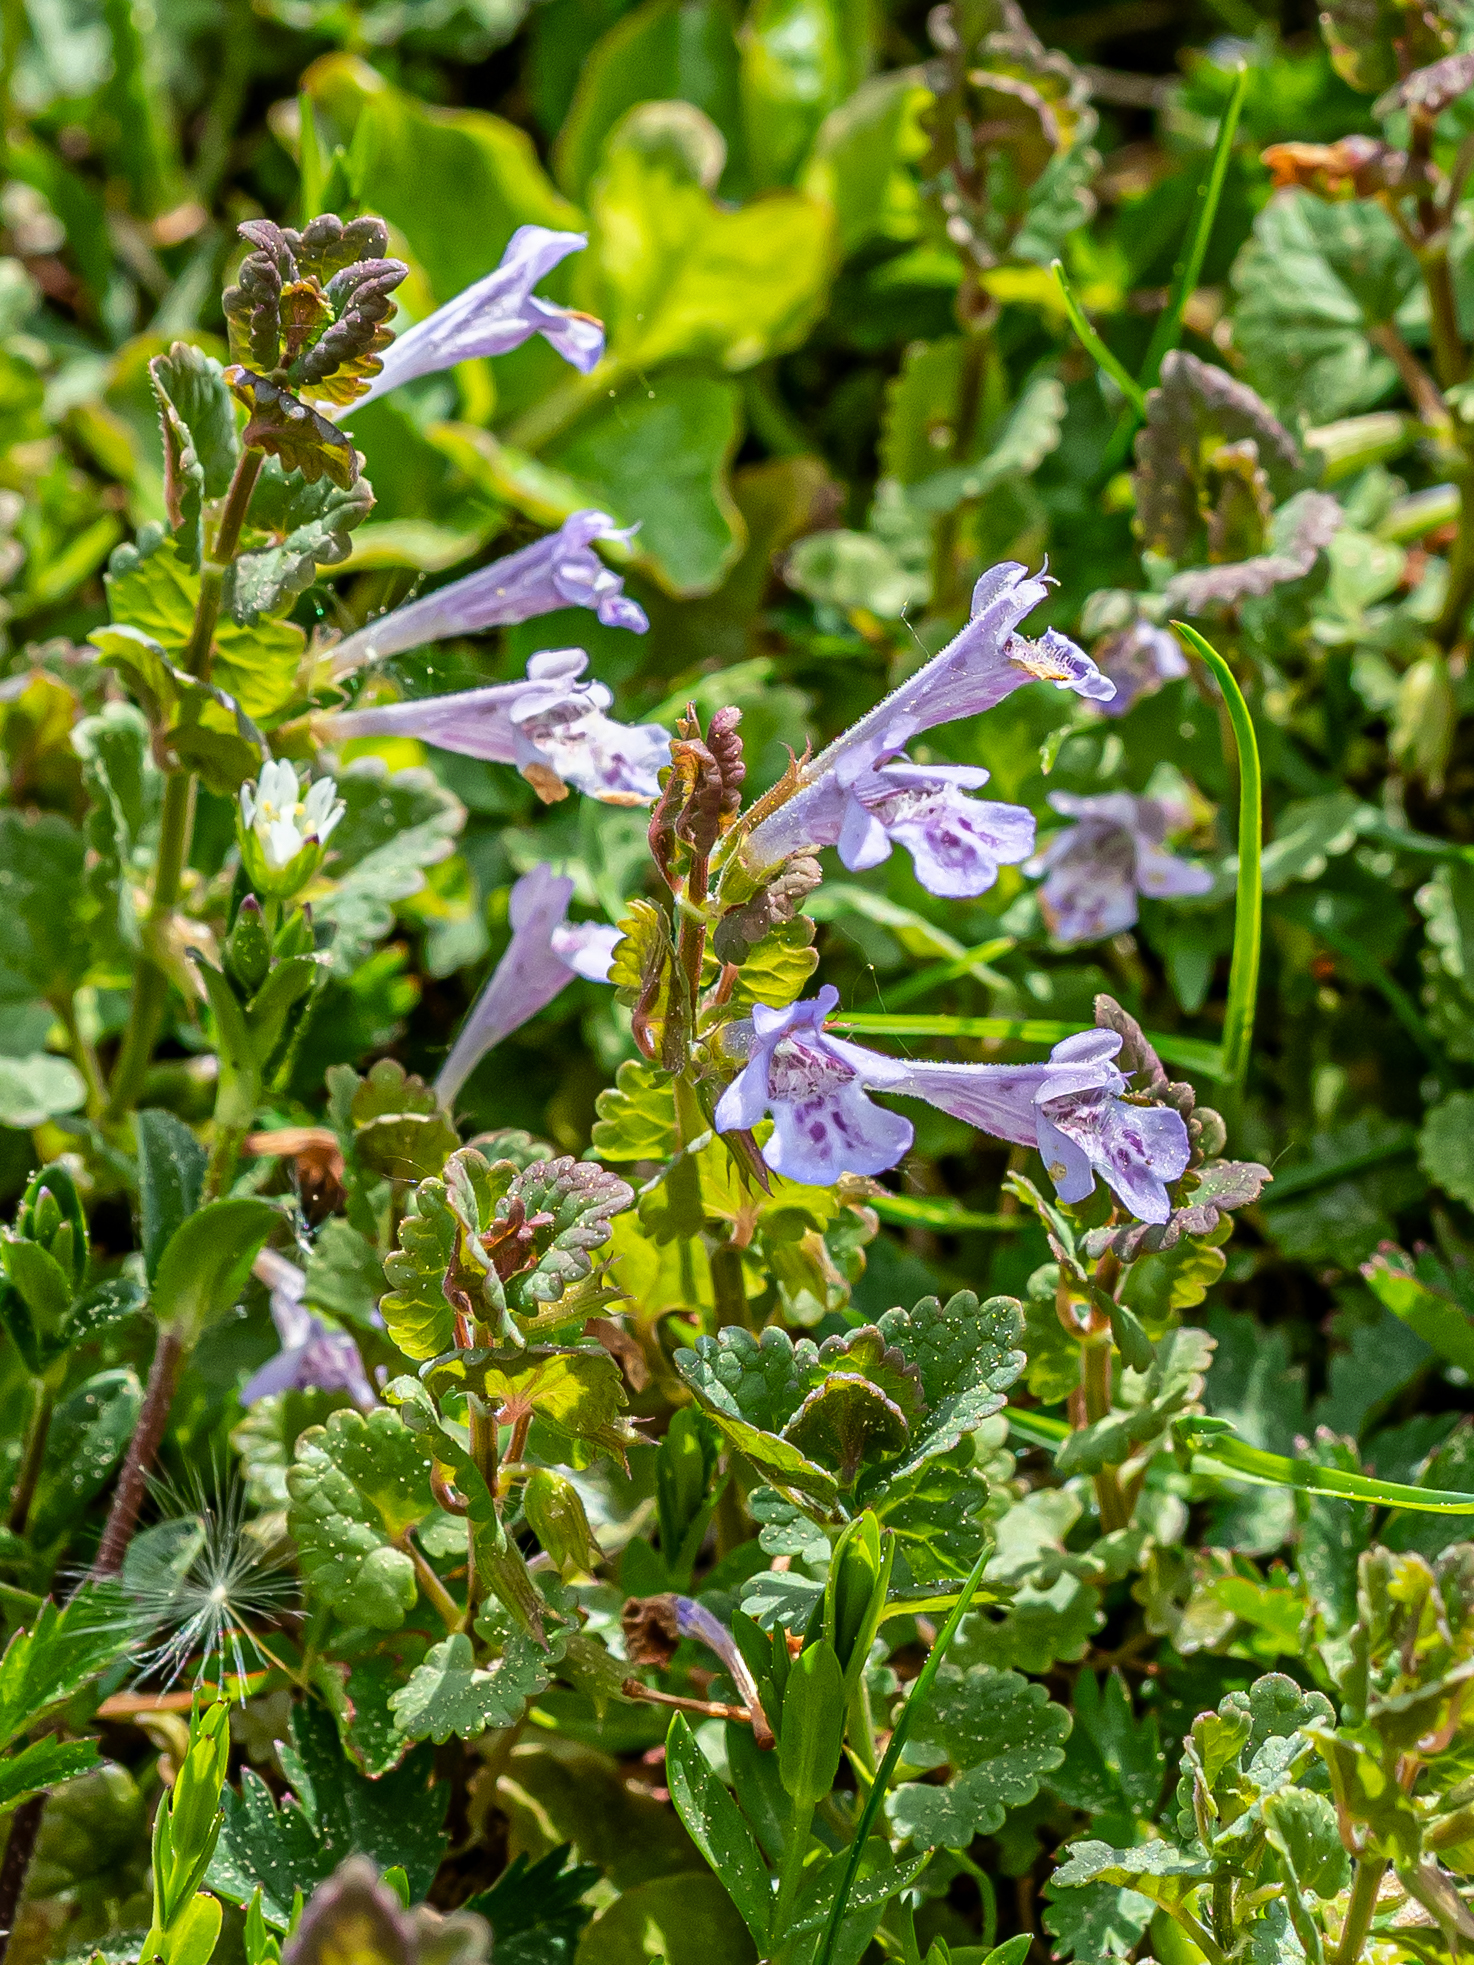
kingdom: Plantae
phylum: Tracheophyta
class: Magnoliopsida
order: Lamiales
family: Lamiaceae
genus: Glechoma
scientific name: Glechoma hederacea
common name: Ground ivy
